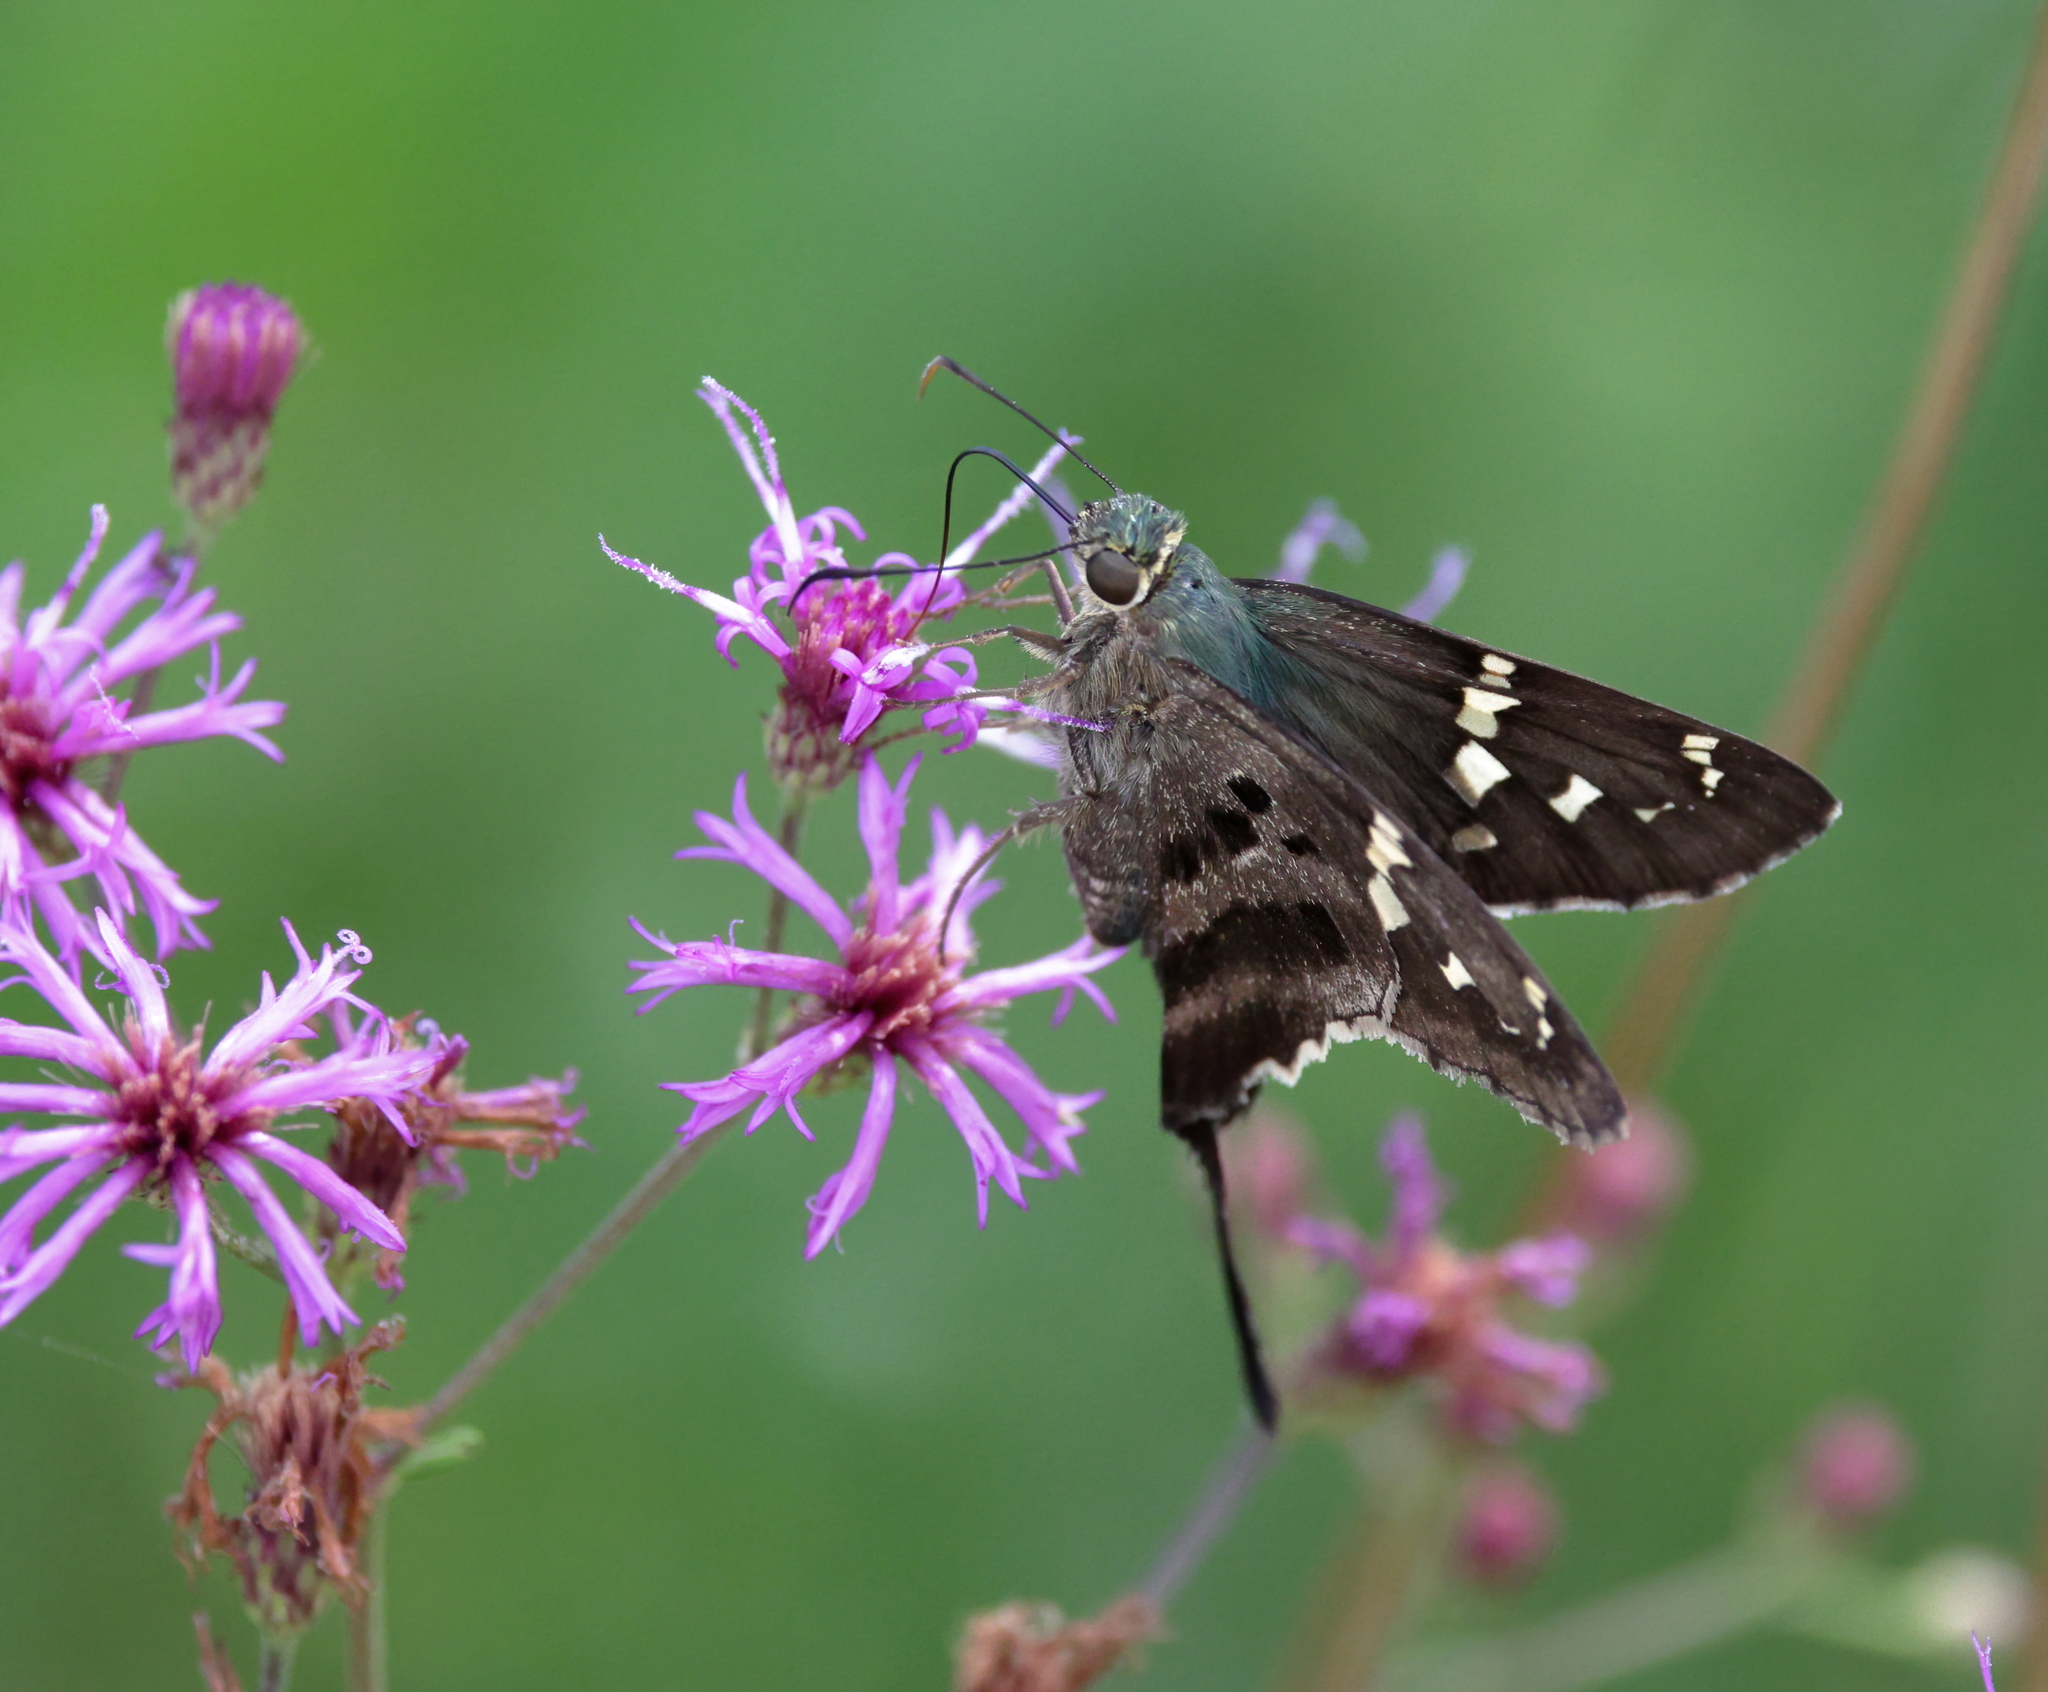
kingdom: Animalia
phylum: Arthropoda
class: Insecta
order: Lepidoptera
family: Hesperiidae
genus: Urbanus
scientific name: Urbanus proteus
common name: Long-tailed skipper
